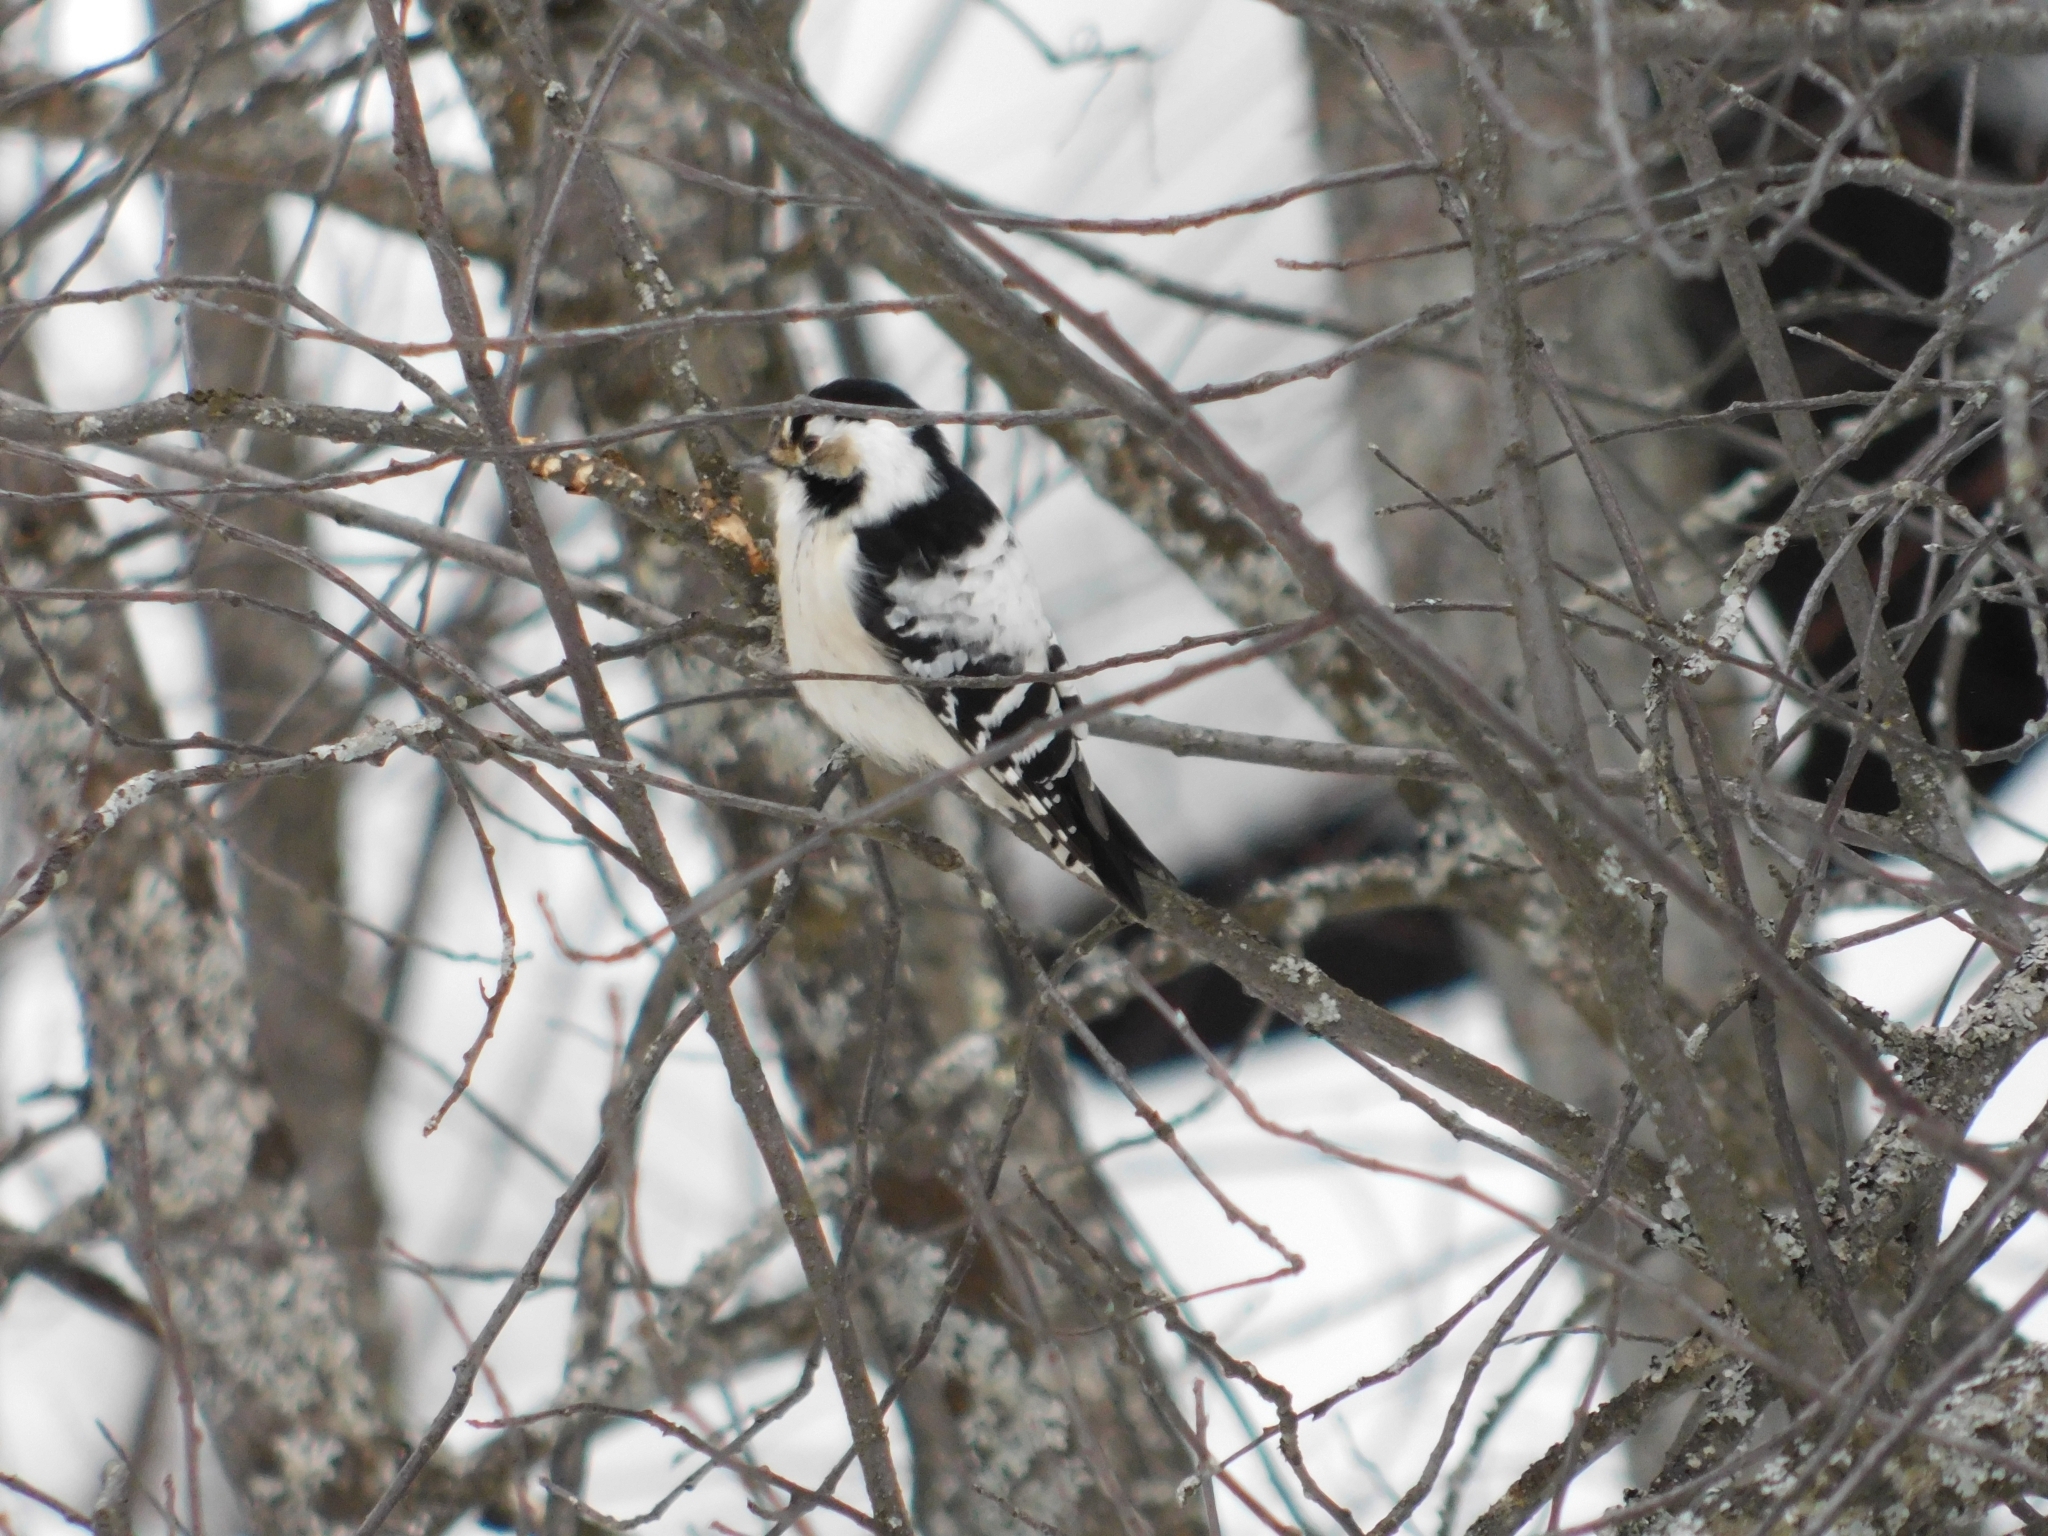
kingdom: Animalia
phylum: Chordata
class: Aves
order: Piciformes
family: Picidae
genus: Dryobates
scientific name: Dryobates minor
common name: Lesser spotted woodpecker
